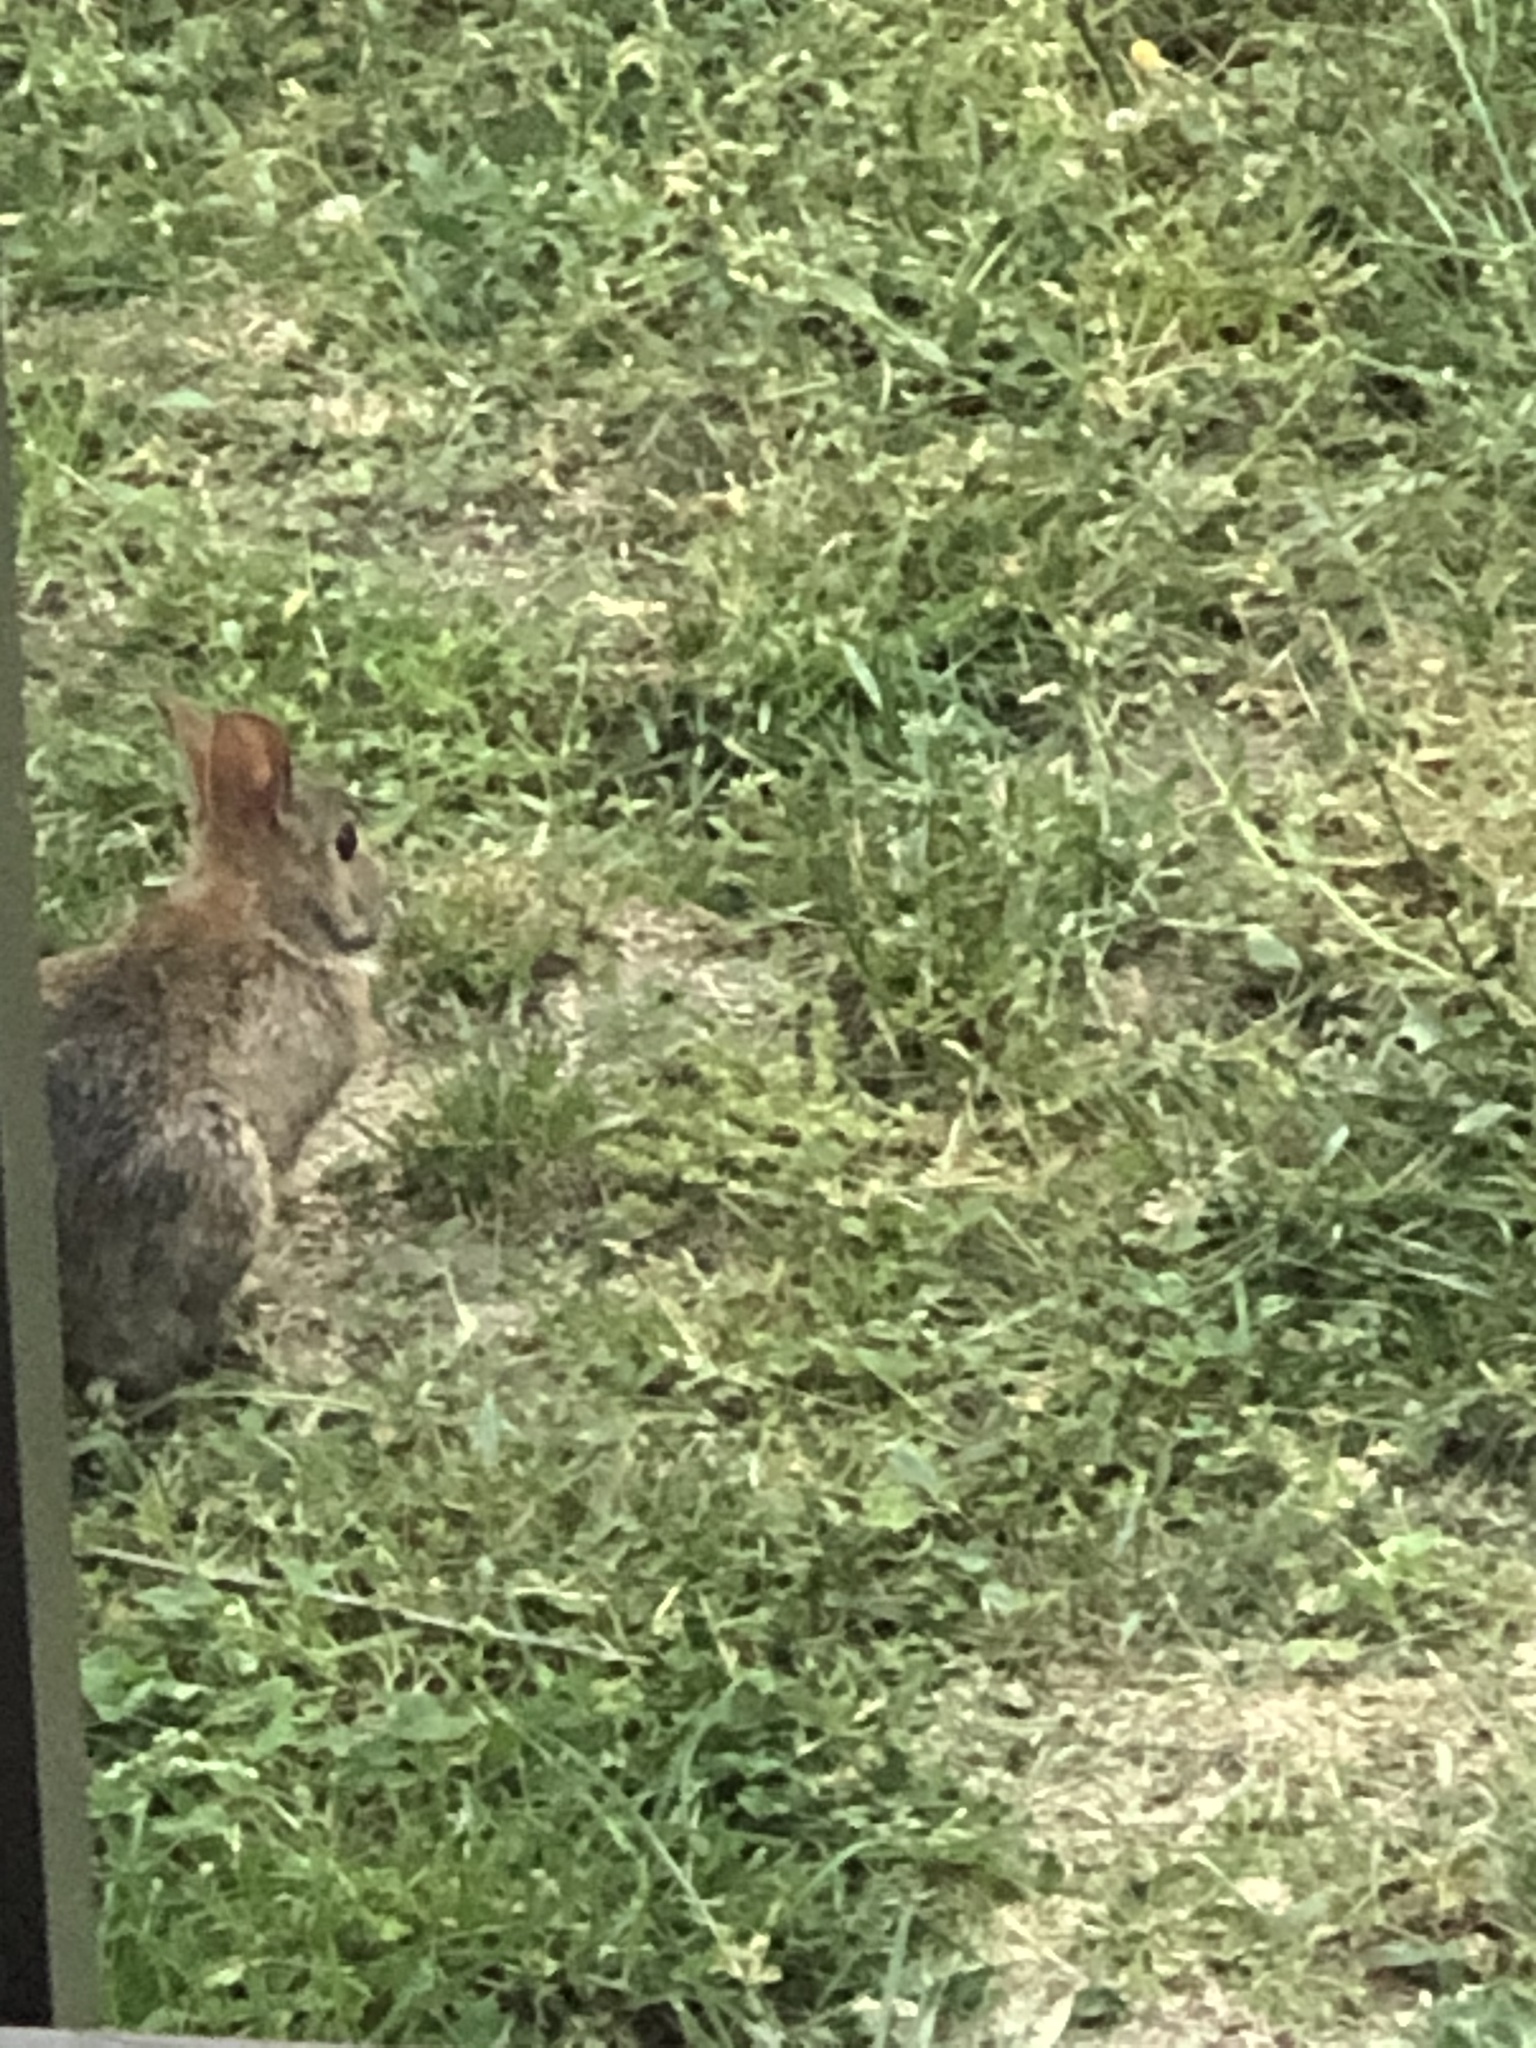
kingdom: Animalia
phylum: Chordata
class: Mammalia
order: Lagomorpha
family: Leporidae
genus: Sylvilagus
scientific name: Sylvilagus floridanus
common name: Eastern cottontail
